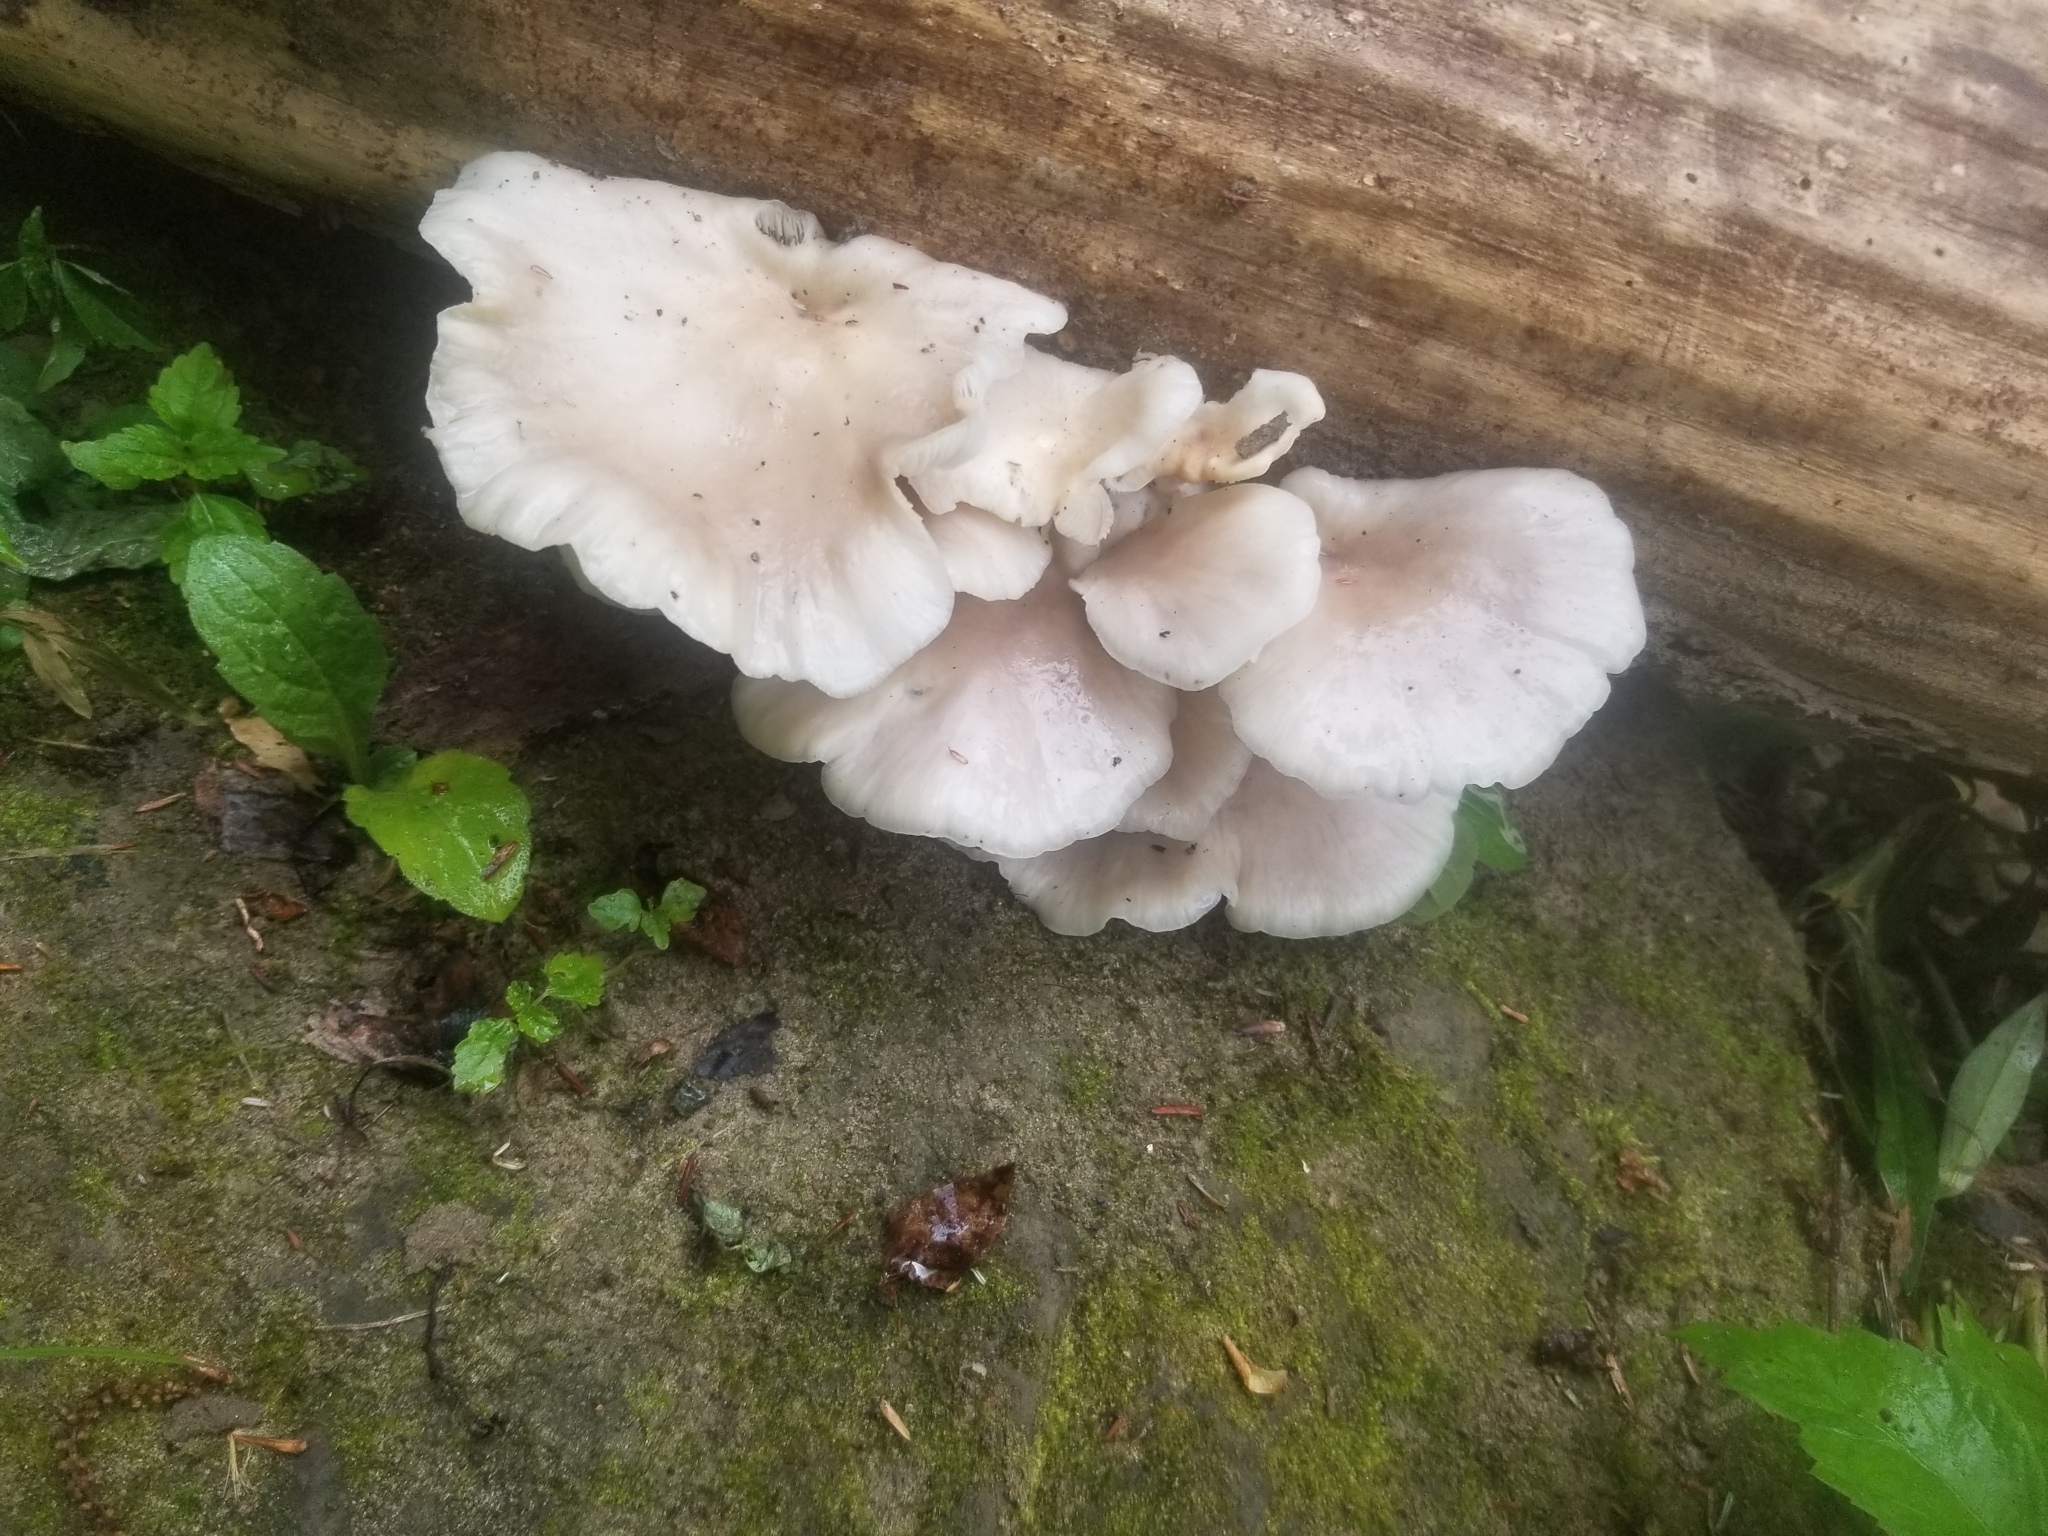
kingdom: Fungi
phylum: Basidiomycota
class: Agaricomycetes
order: Agaricales
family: Pleurotaceae
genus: Pleurotus
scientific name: Pleurotus pulmonarius
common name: Pale oyster
